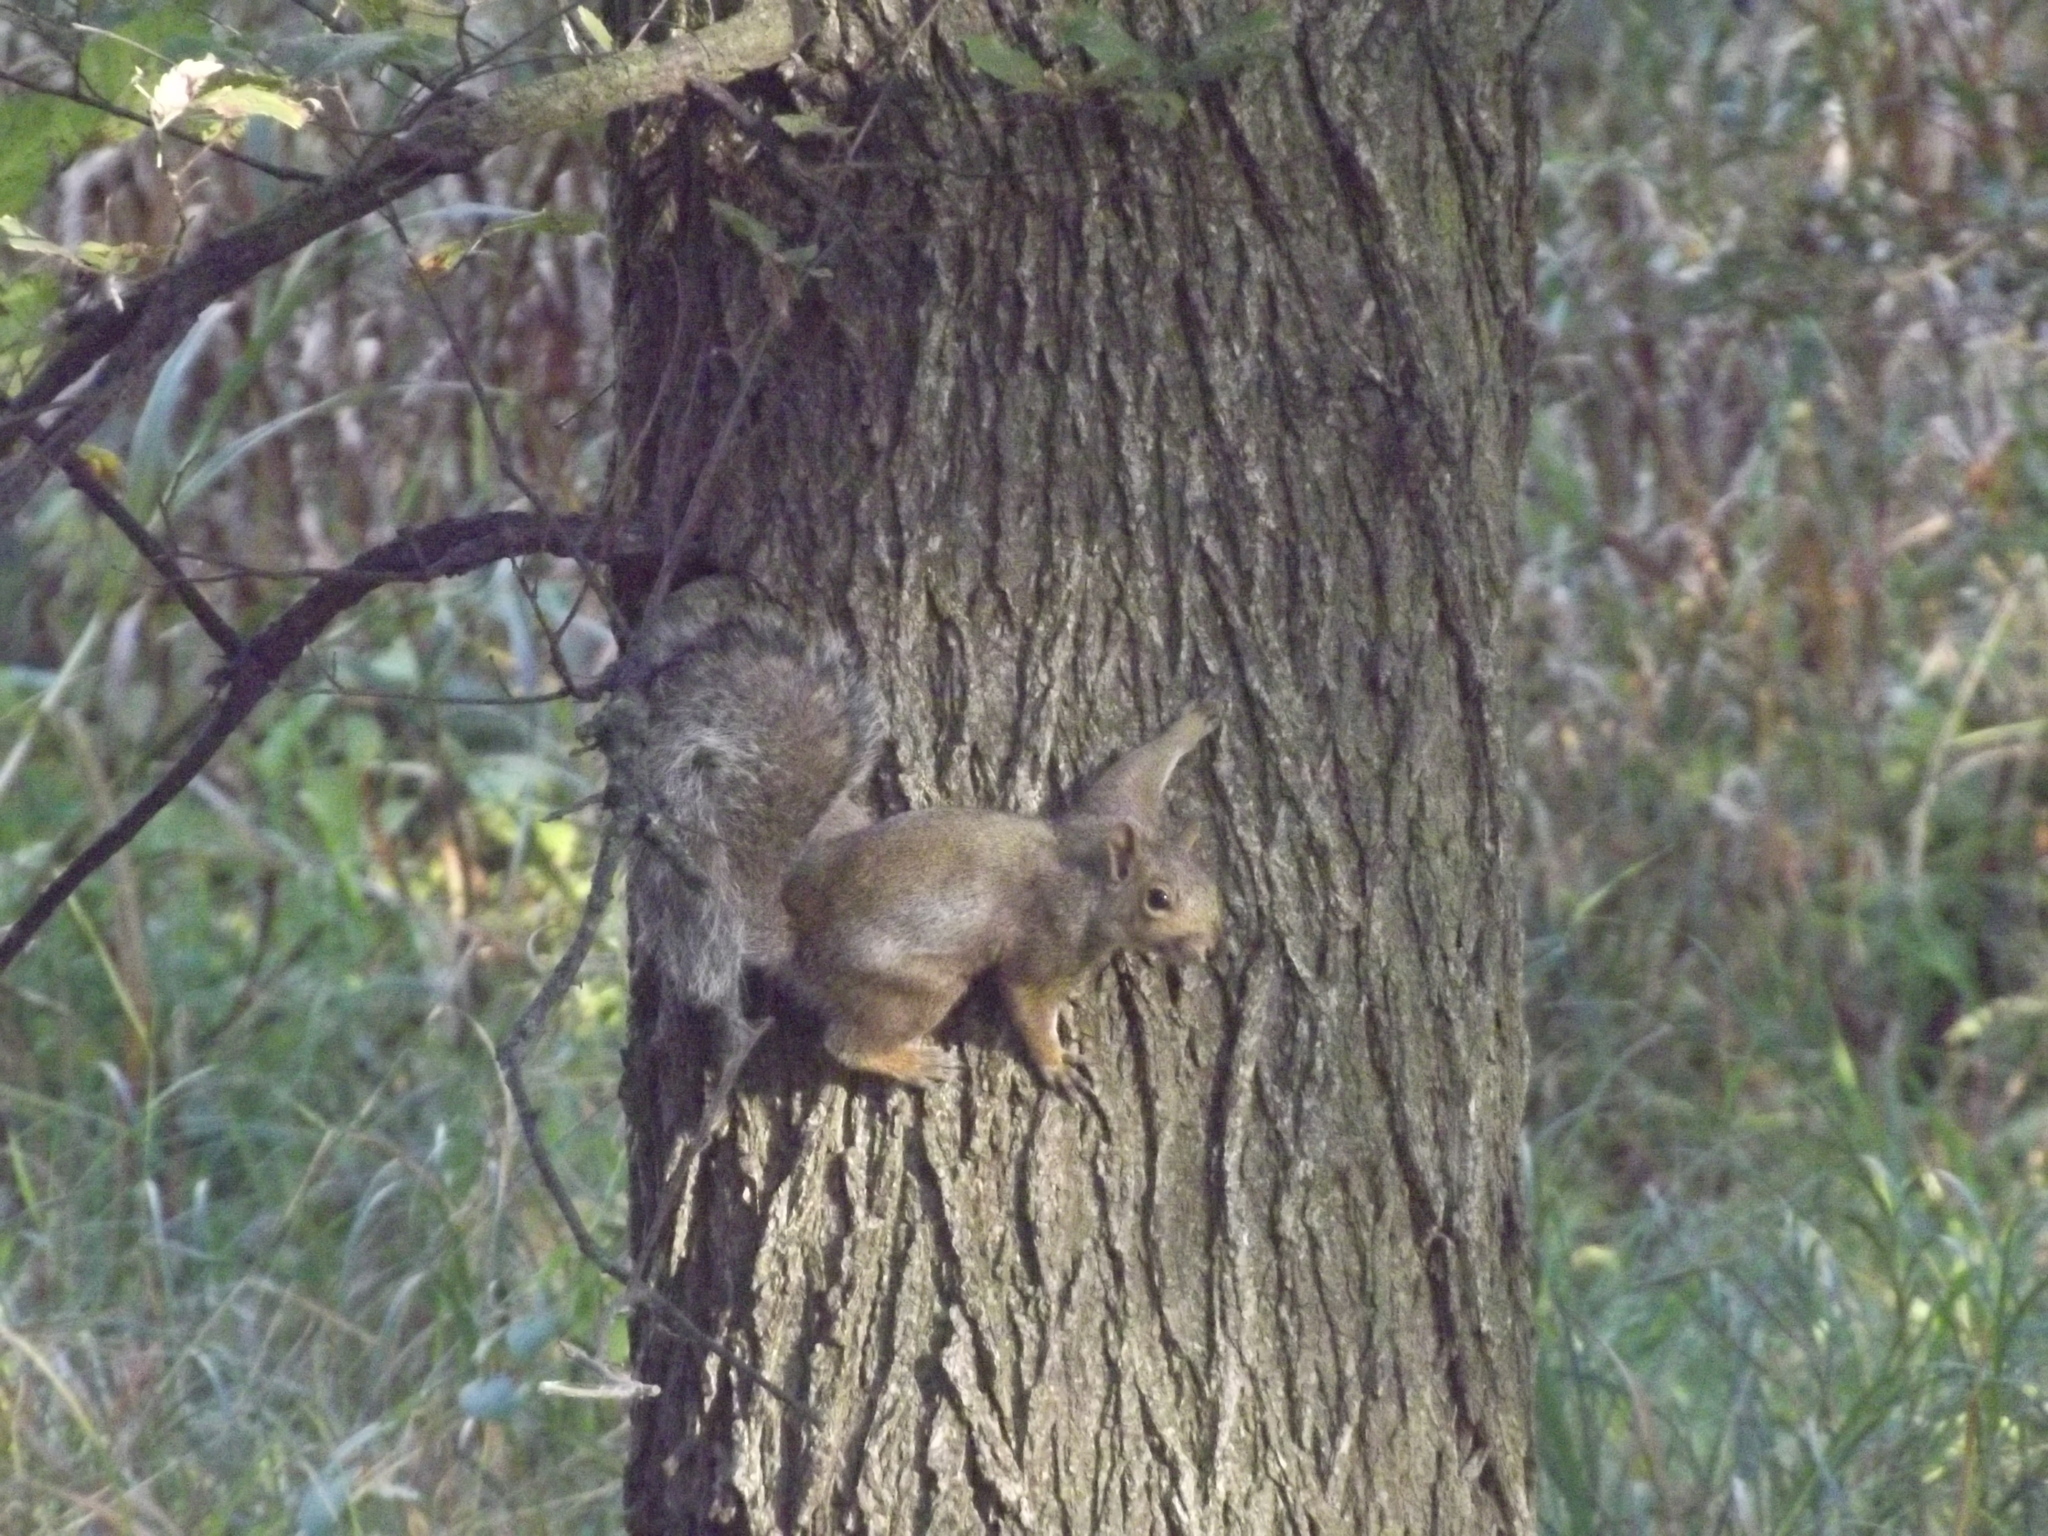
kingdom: Animalia
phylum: Chordata
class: Mammalia
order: Rodentia
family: Sciuridae
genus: Sciurus
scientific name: Sciurus carolinensis
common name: Eastern gray squirrel
